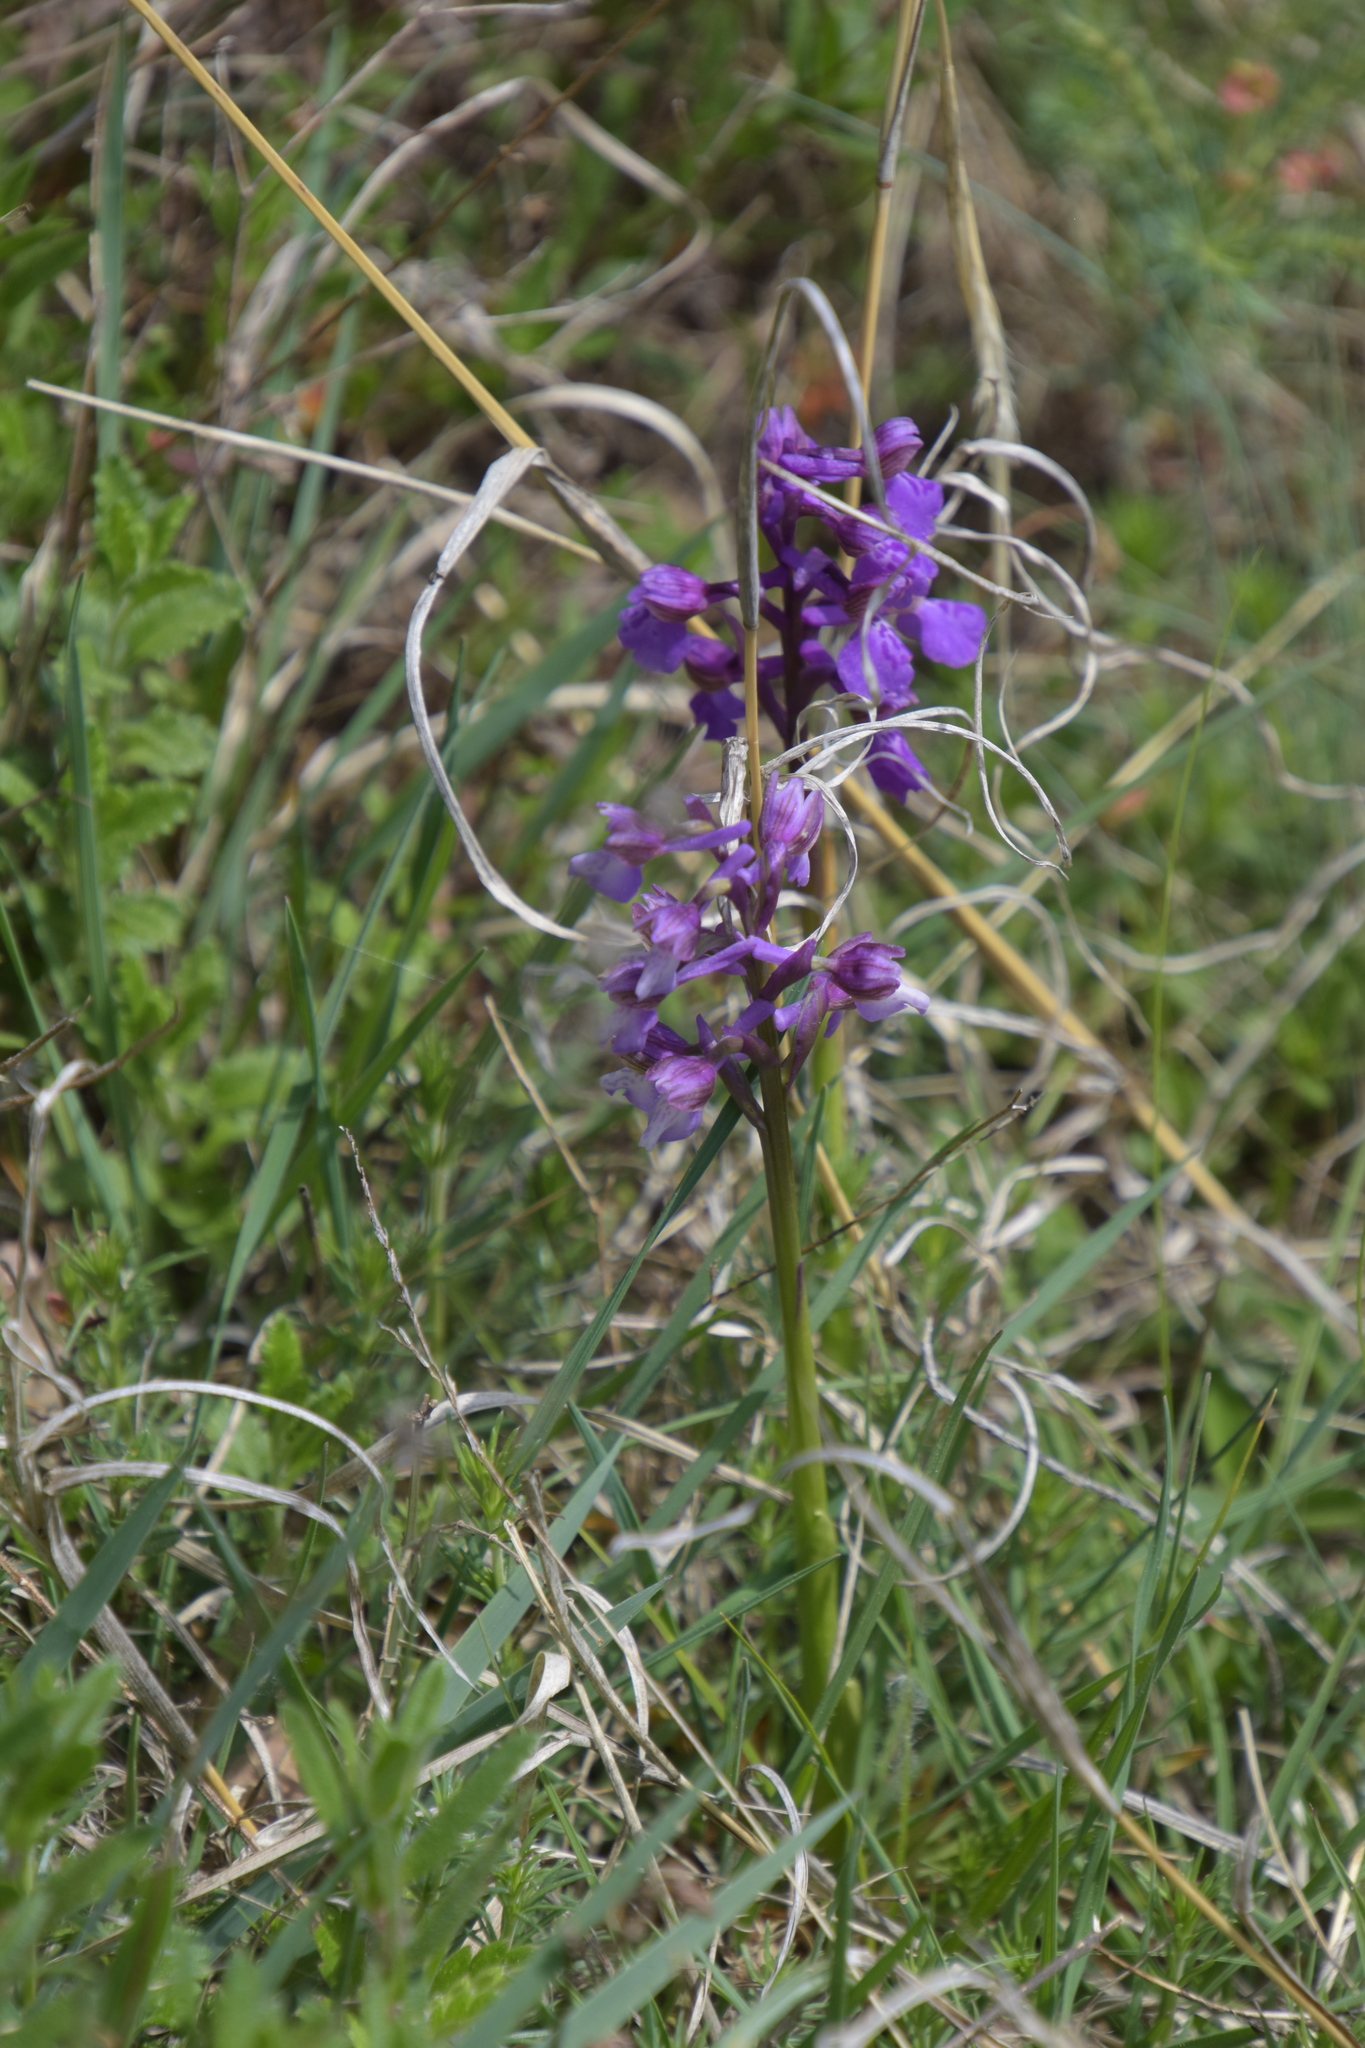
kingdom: Plantae
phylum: Tracheophyta
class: Liliopsida
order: Asparagales
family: Orchidaceae
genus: Anacamptis
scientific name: Anacamptis morio
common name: Green-winged orchid
